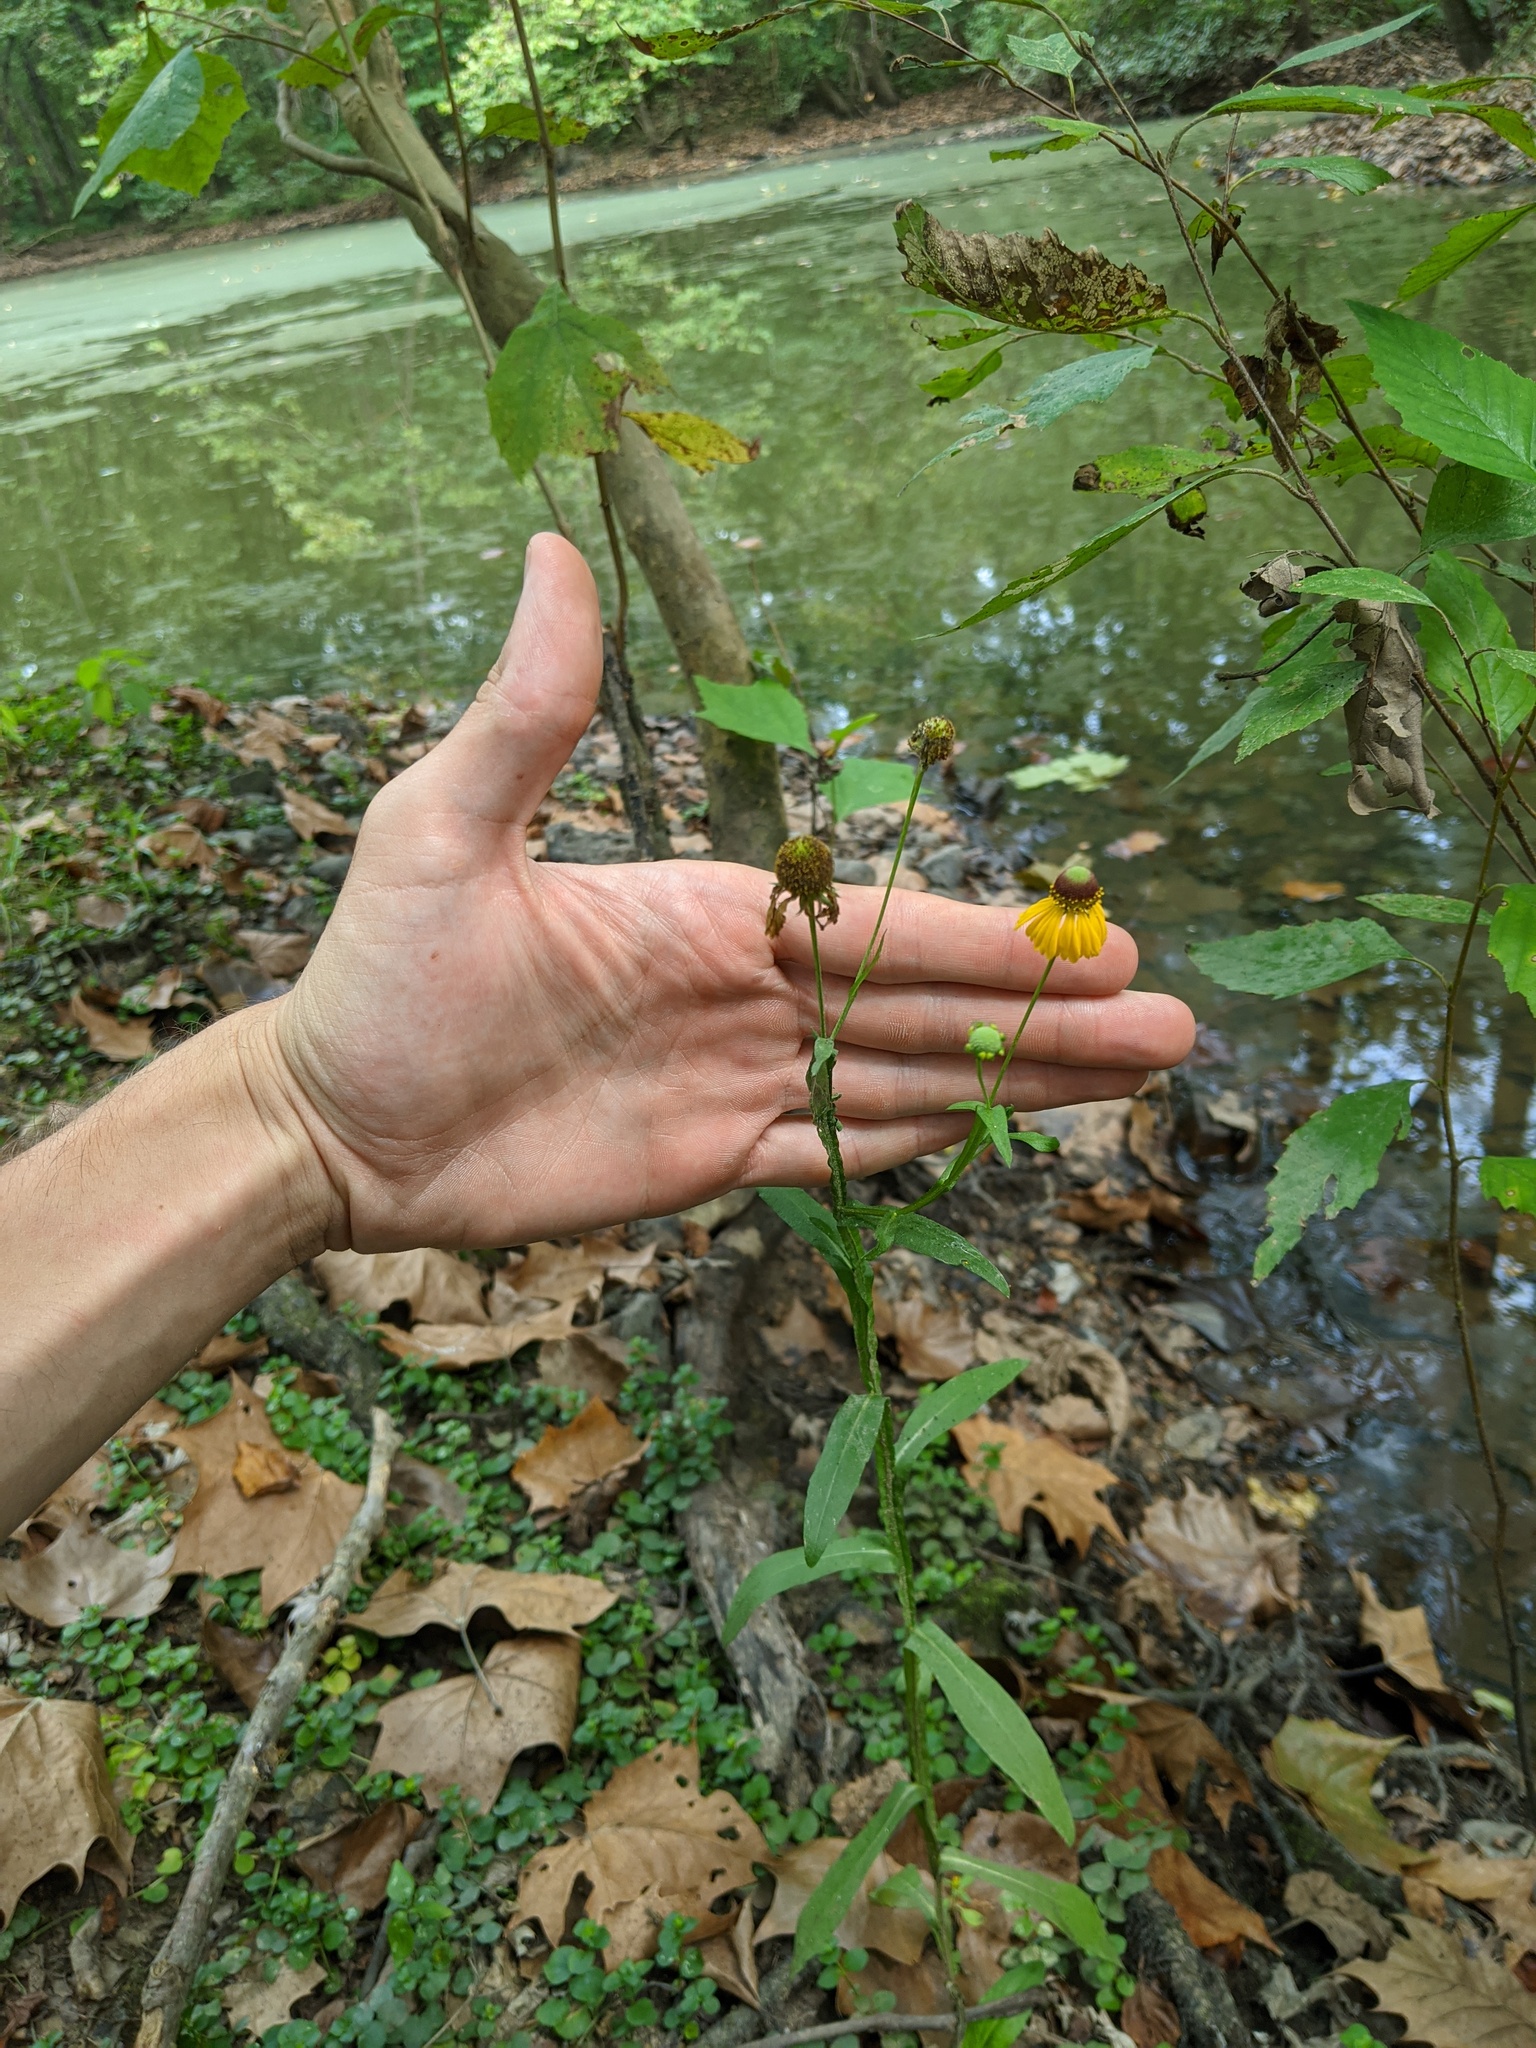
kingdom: Plantae
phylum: Tracheophyta
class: Magnoliopsida
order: Asterales
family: Asteraceae
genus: Helenium
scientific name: Helenium flexuosum
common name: Naked-flowered sneezeweed
